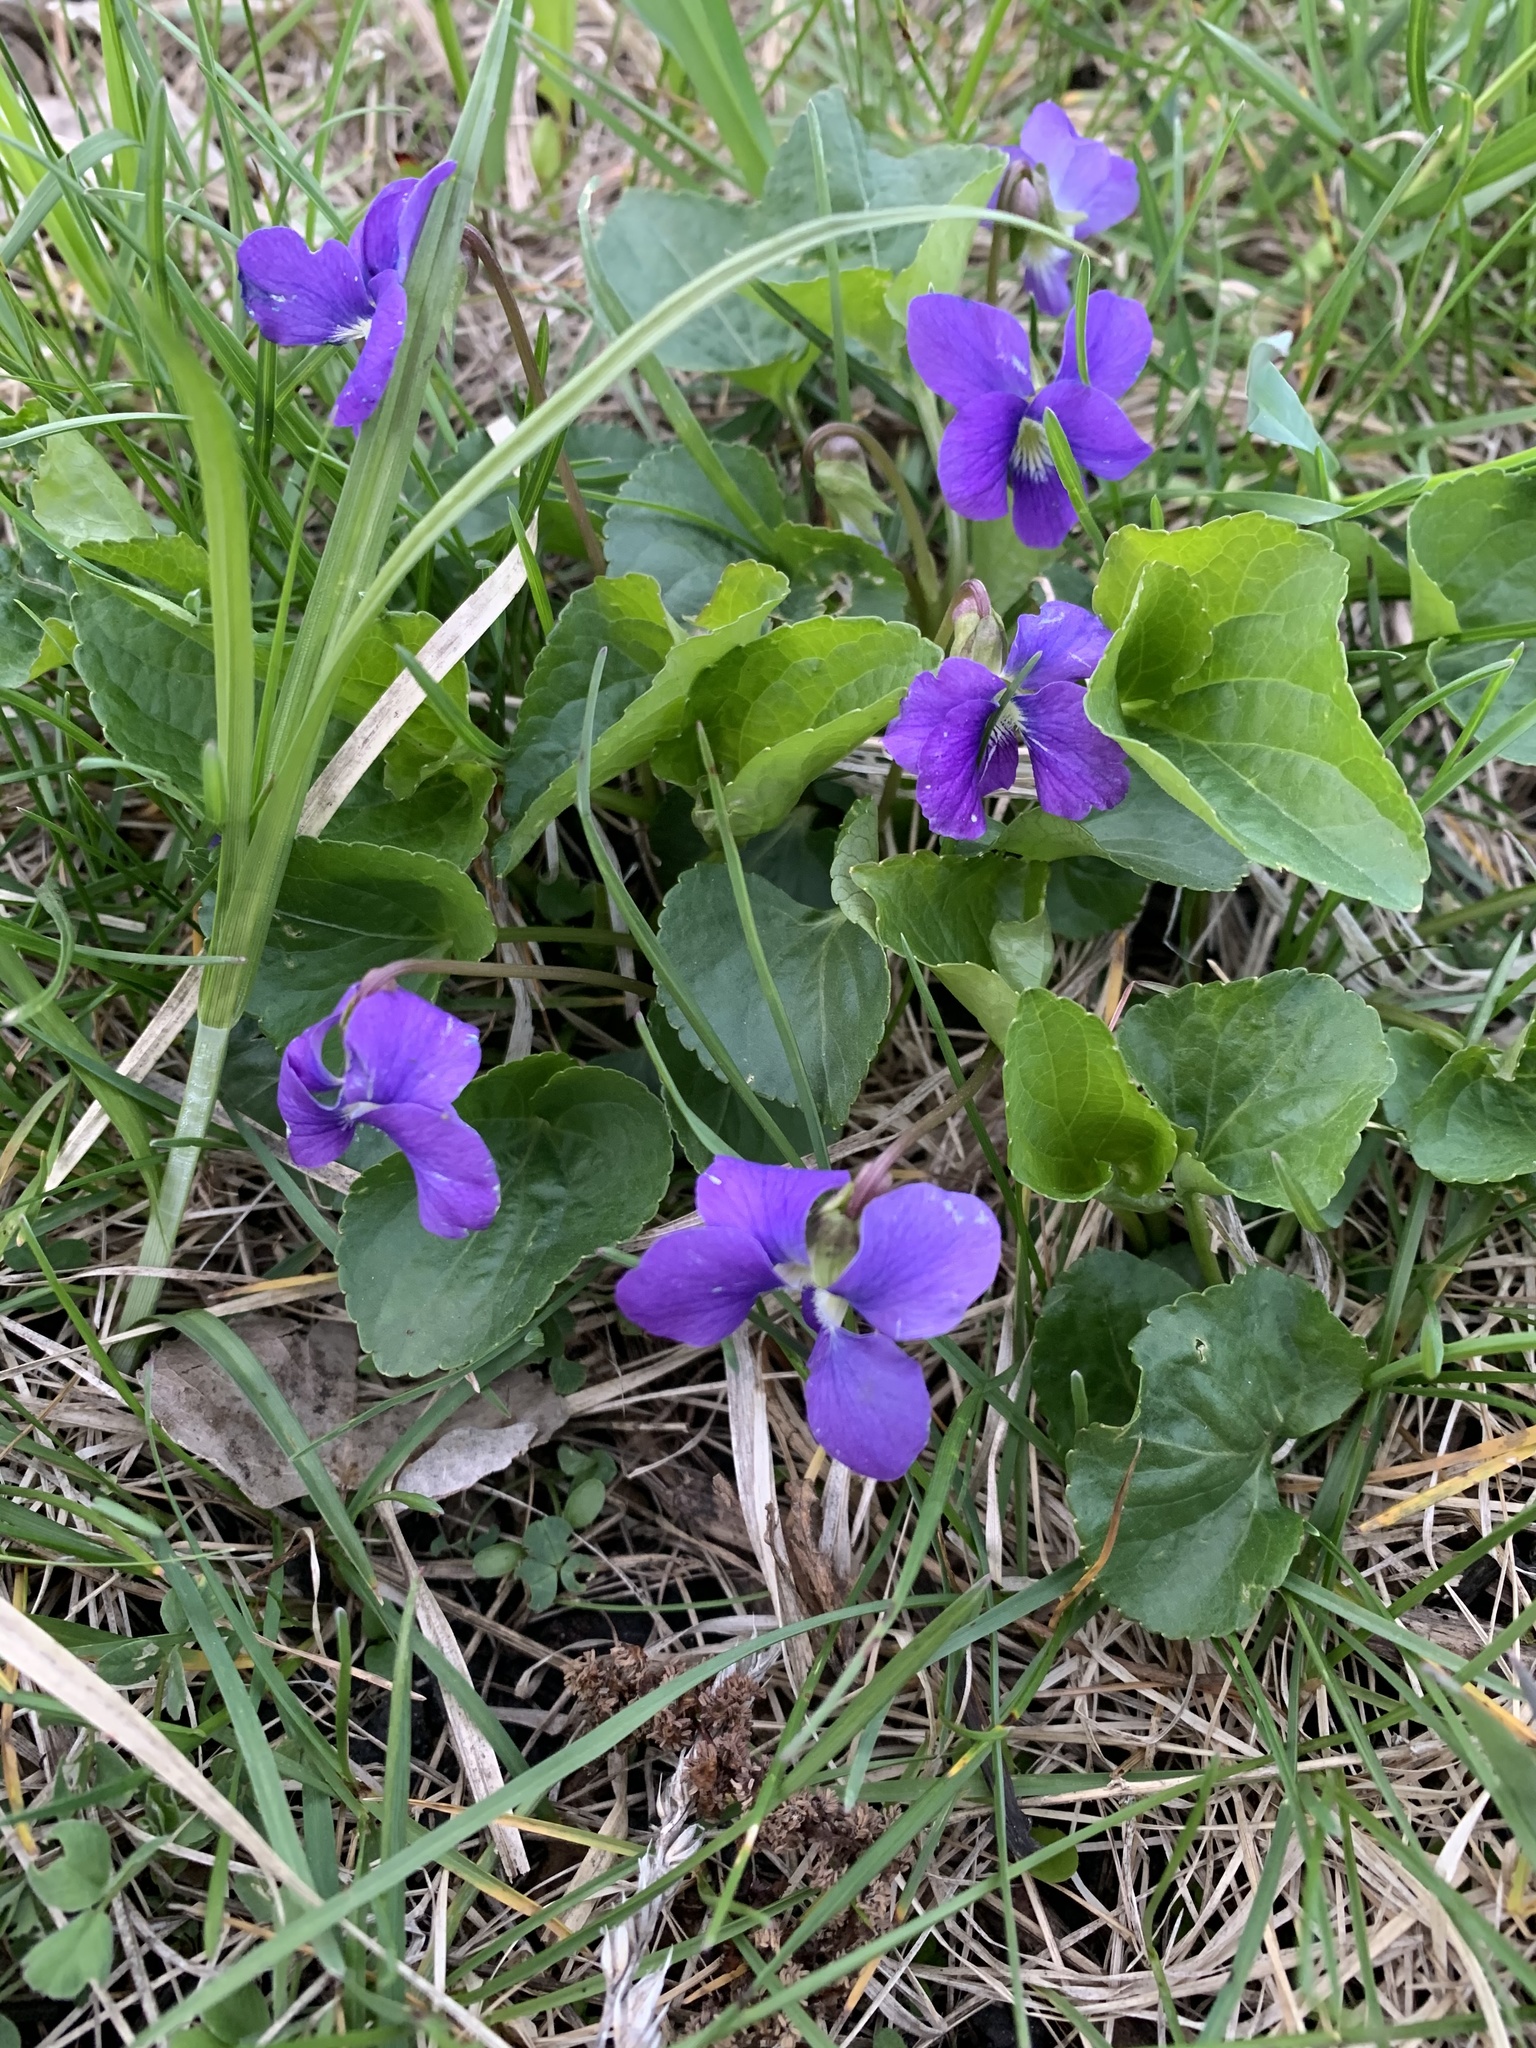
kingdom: Plantae
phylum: Tracheophyta
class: Magnoliopsida
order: Malpighiales
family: Violaceae
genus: Viola
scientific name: Viola sororia
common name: Dooryard violet
